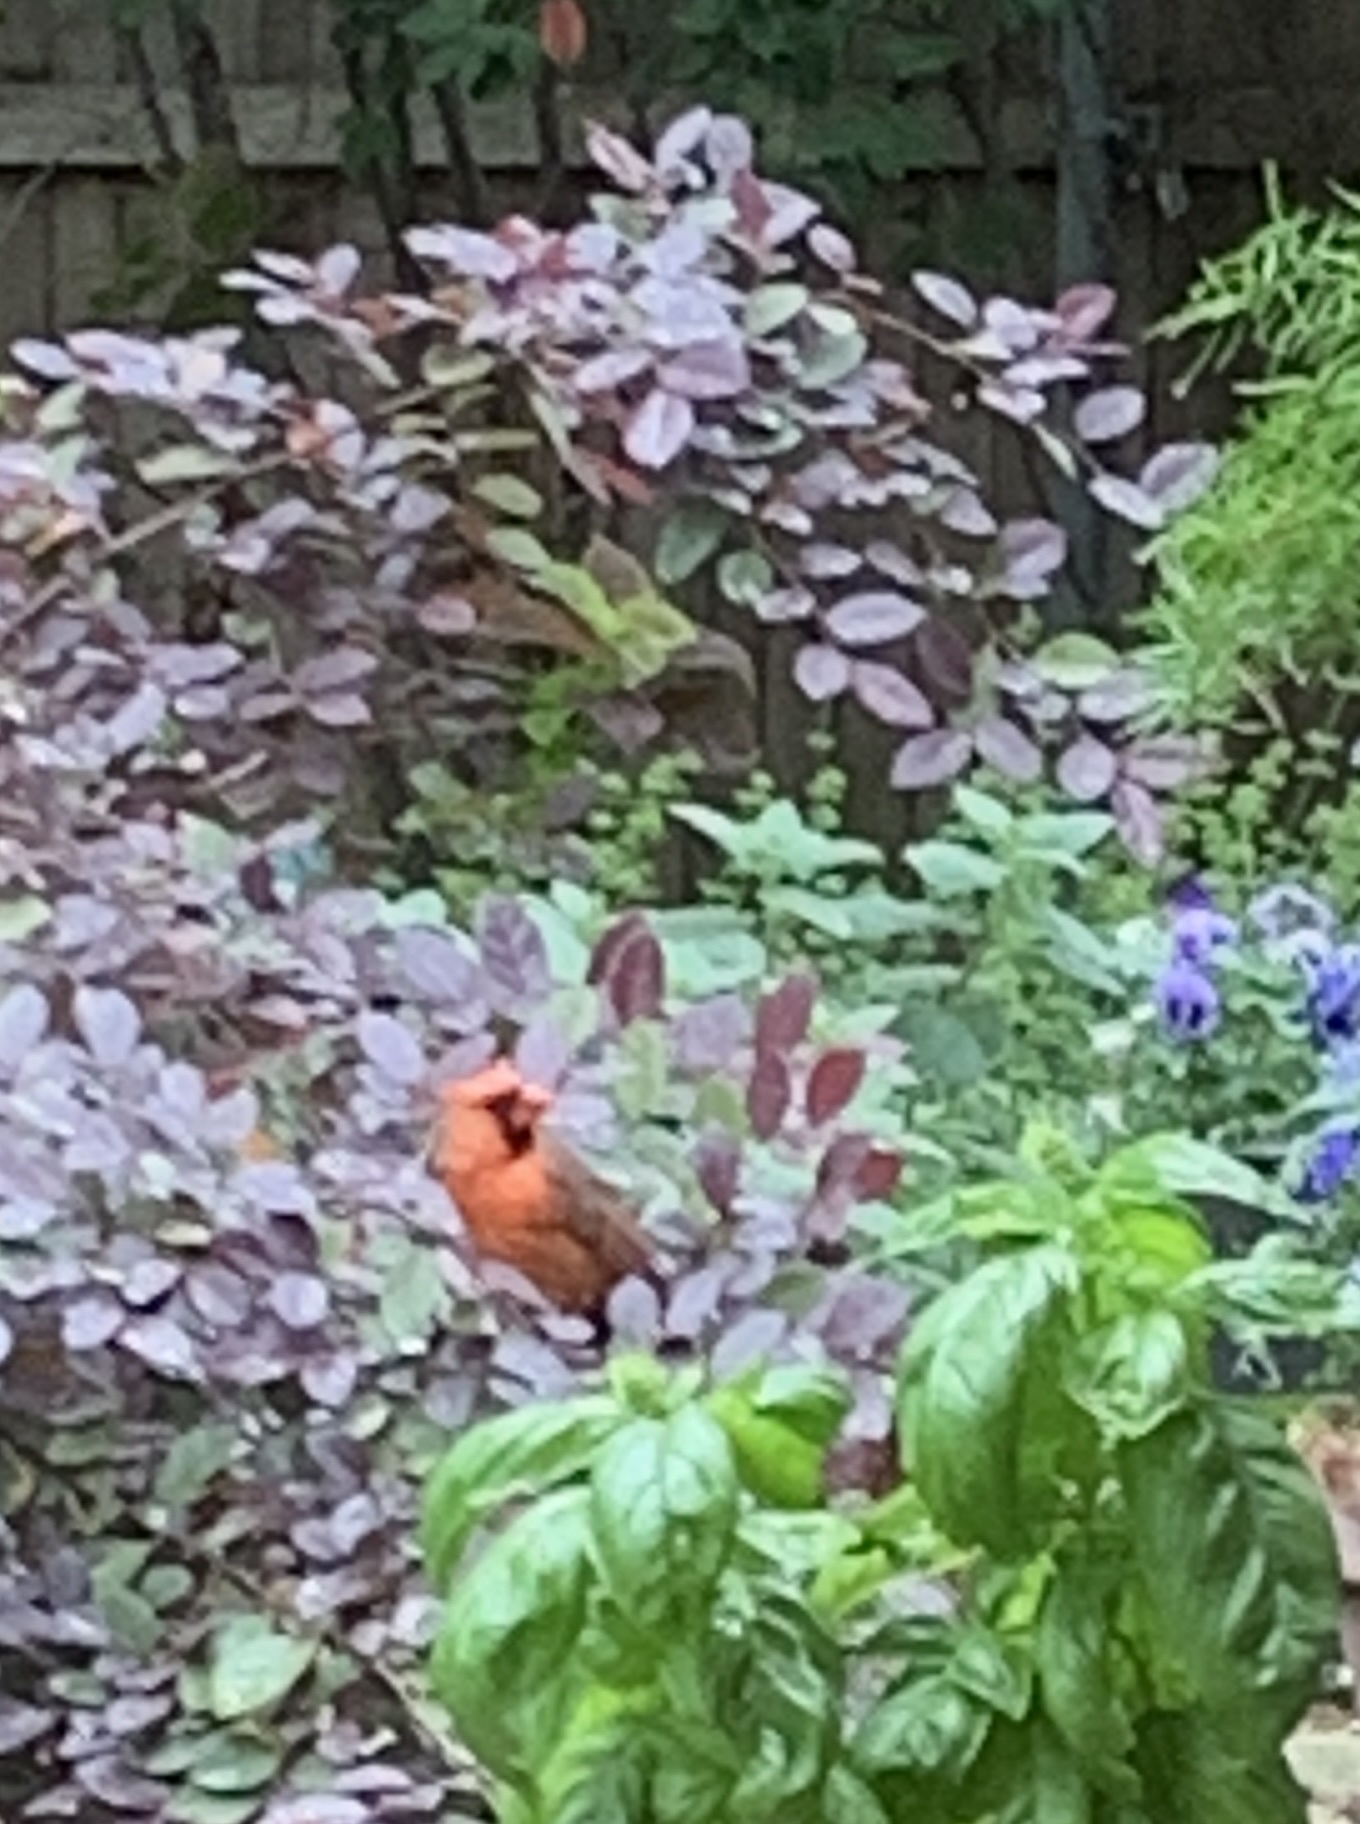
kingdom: Animalia
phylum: Chordata
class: Aves
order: Passeriformes
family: Cardinalidae
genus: Cardinalis
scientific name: Cardinalis cardinalis
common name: Northern cardinal
